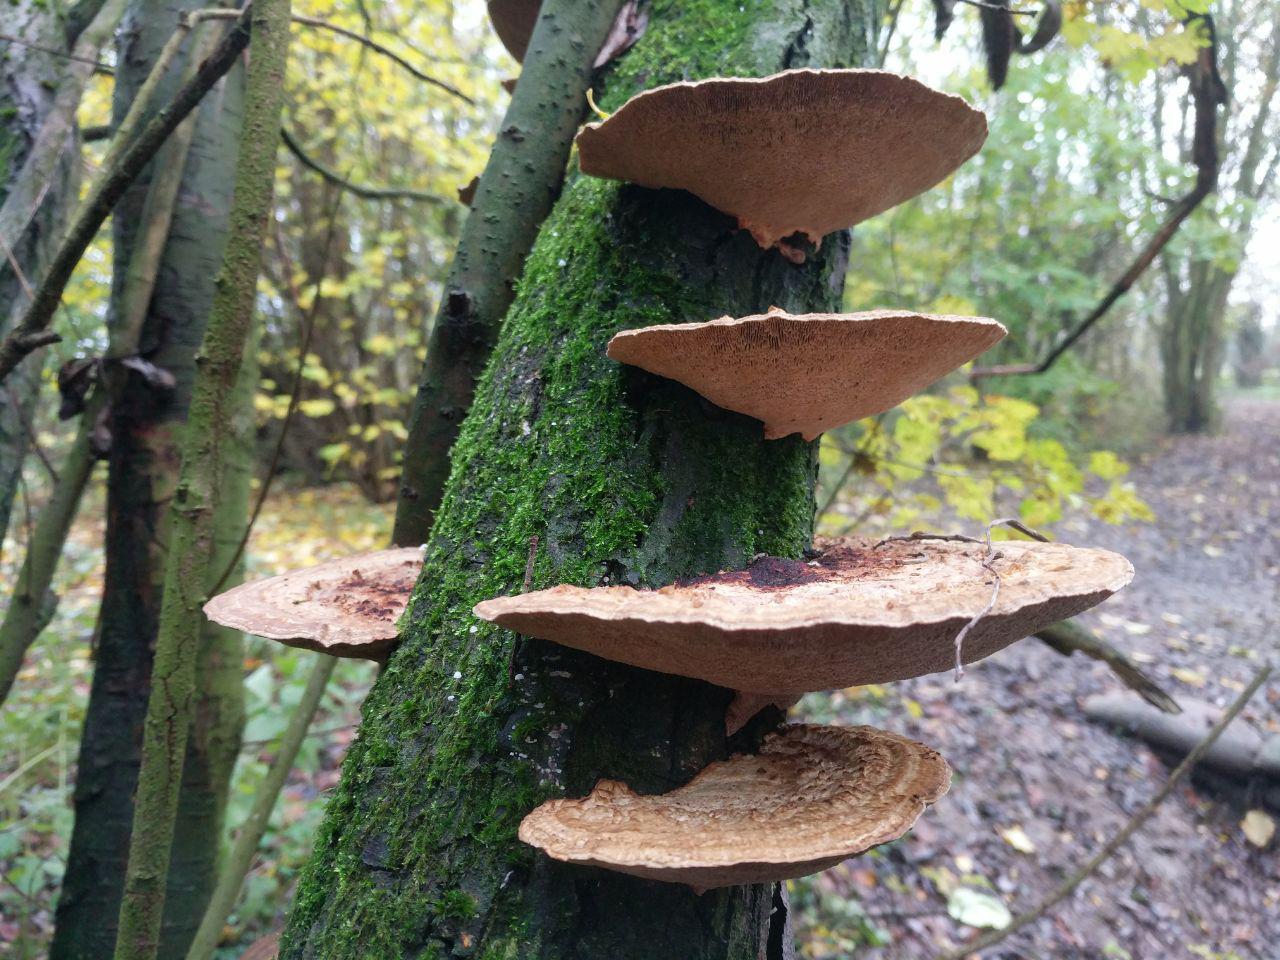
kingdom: Fungi
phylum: Basidiomycota
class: Agaricomycetes
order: Polyporales
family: Polyporaceae
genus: Daedaleopsis
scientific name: Daedaleopsis confragosa
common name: Blushing bracket
